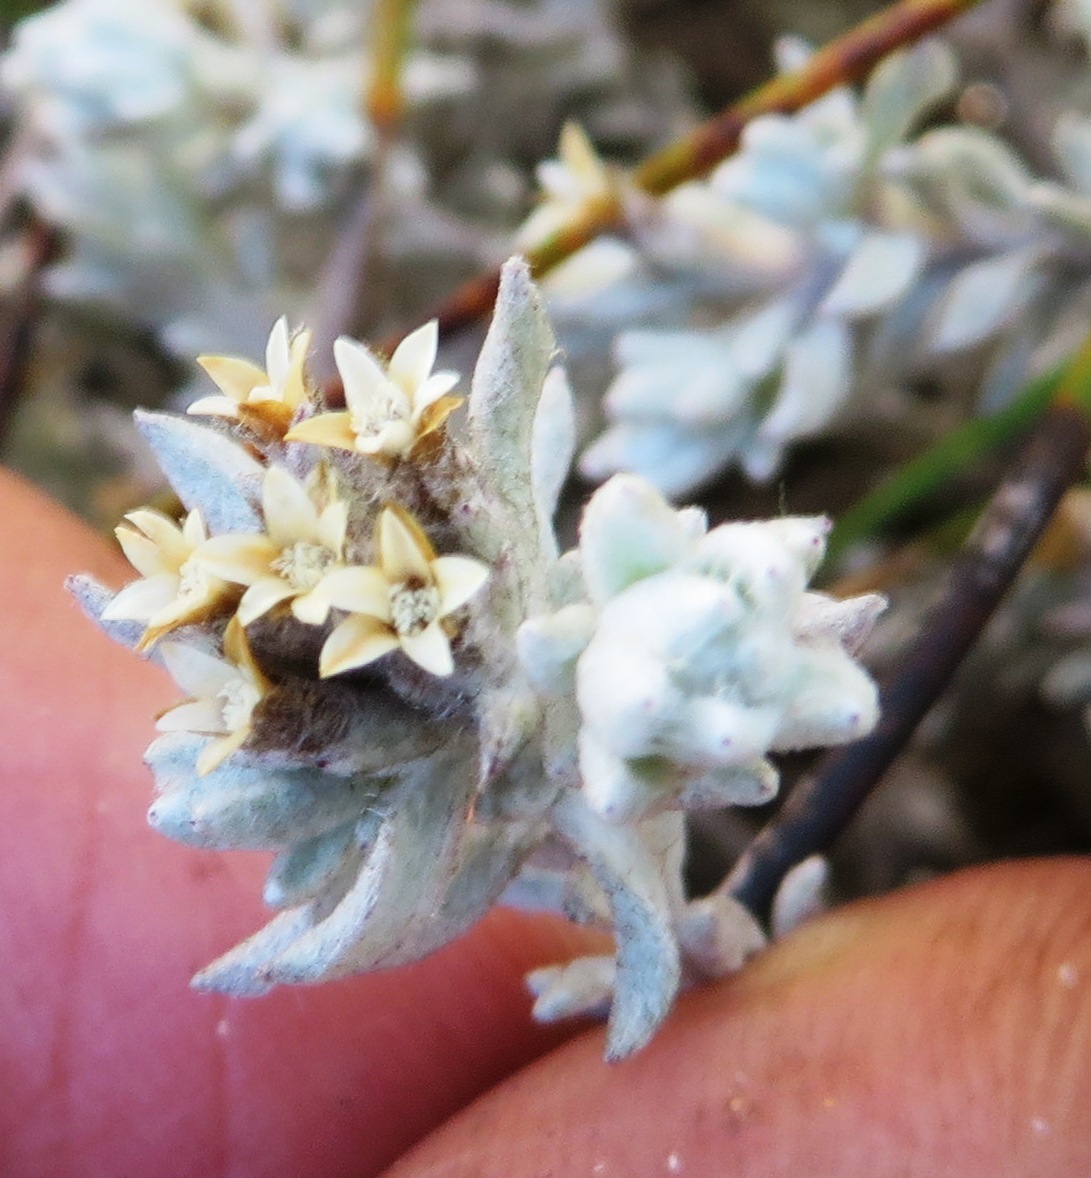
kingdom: Plantae
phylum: Tracheophyta
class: Magnoliopsida
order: Asterales
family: Asteraceae
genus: Metalasia
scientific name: Metalasia bodkinii
